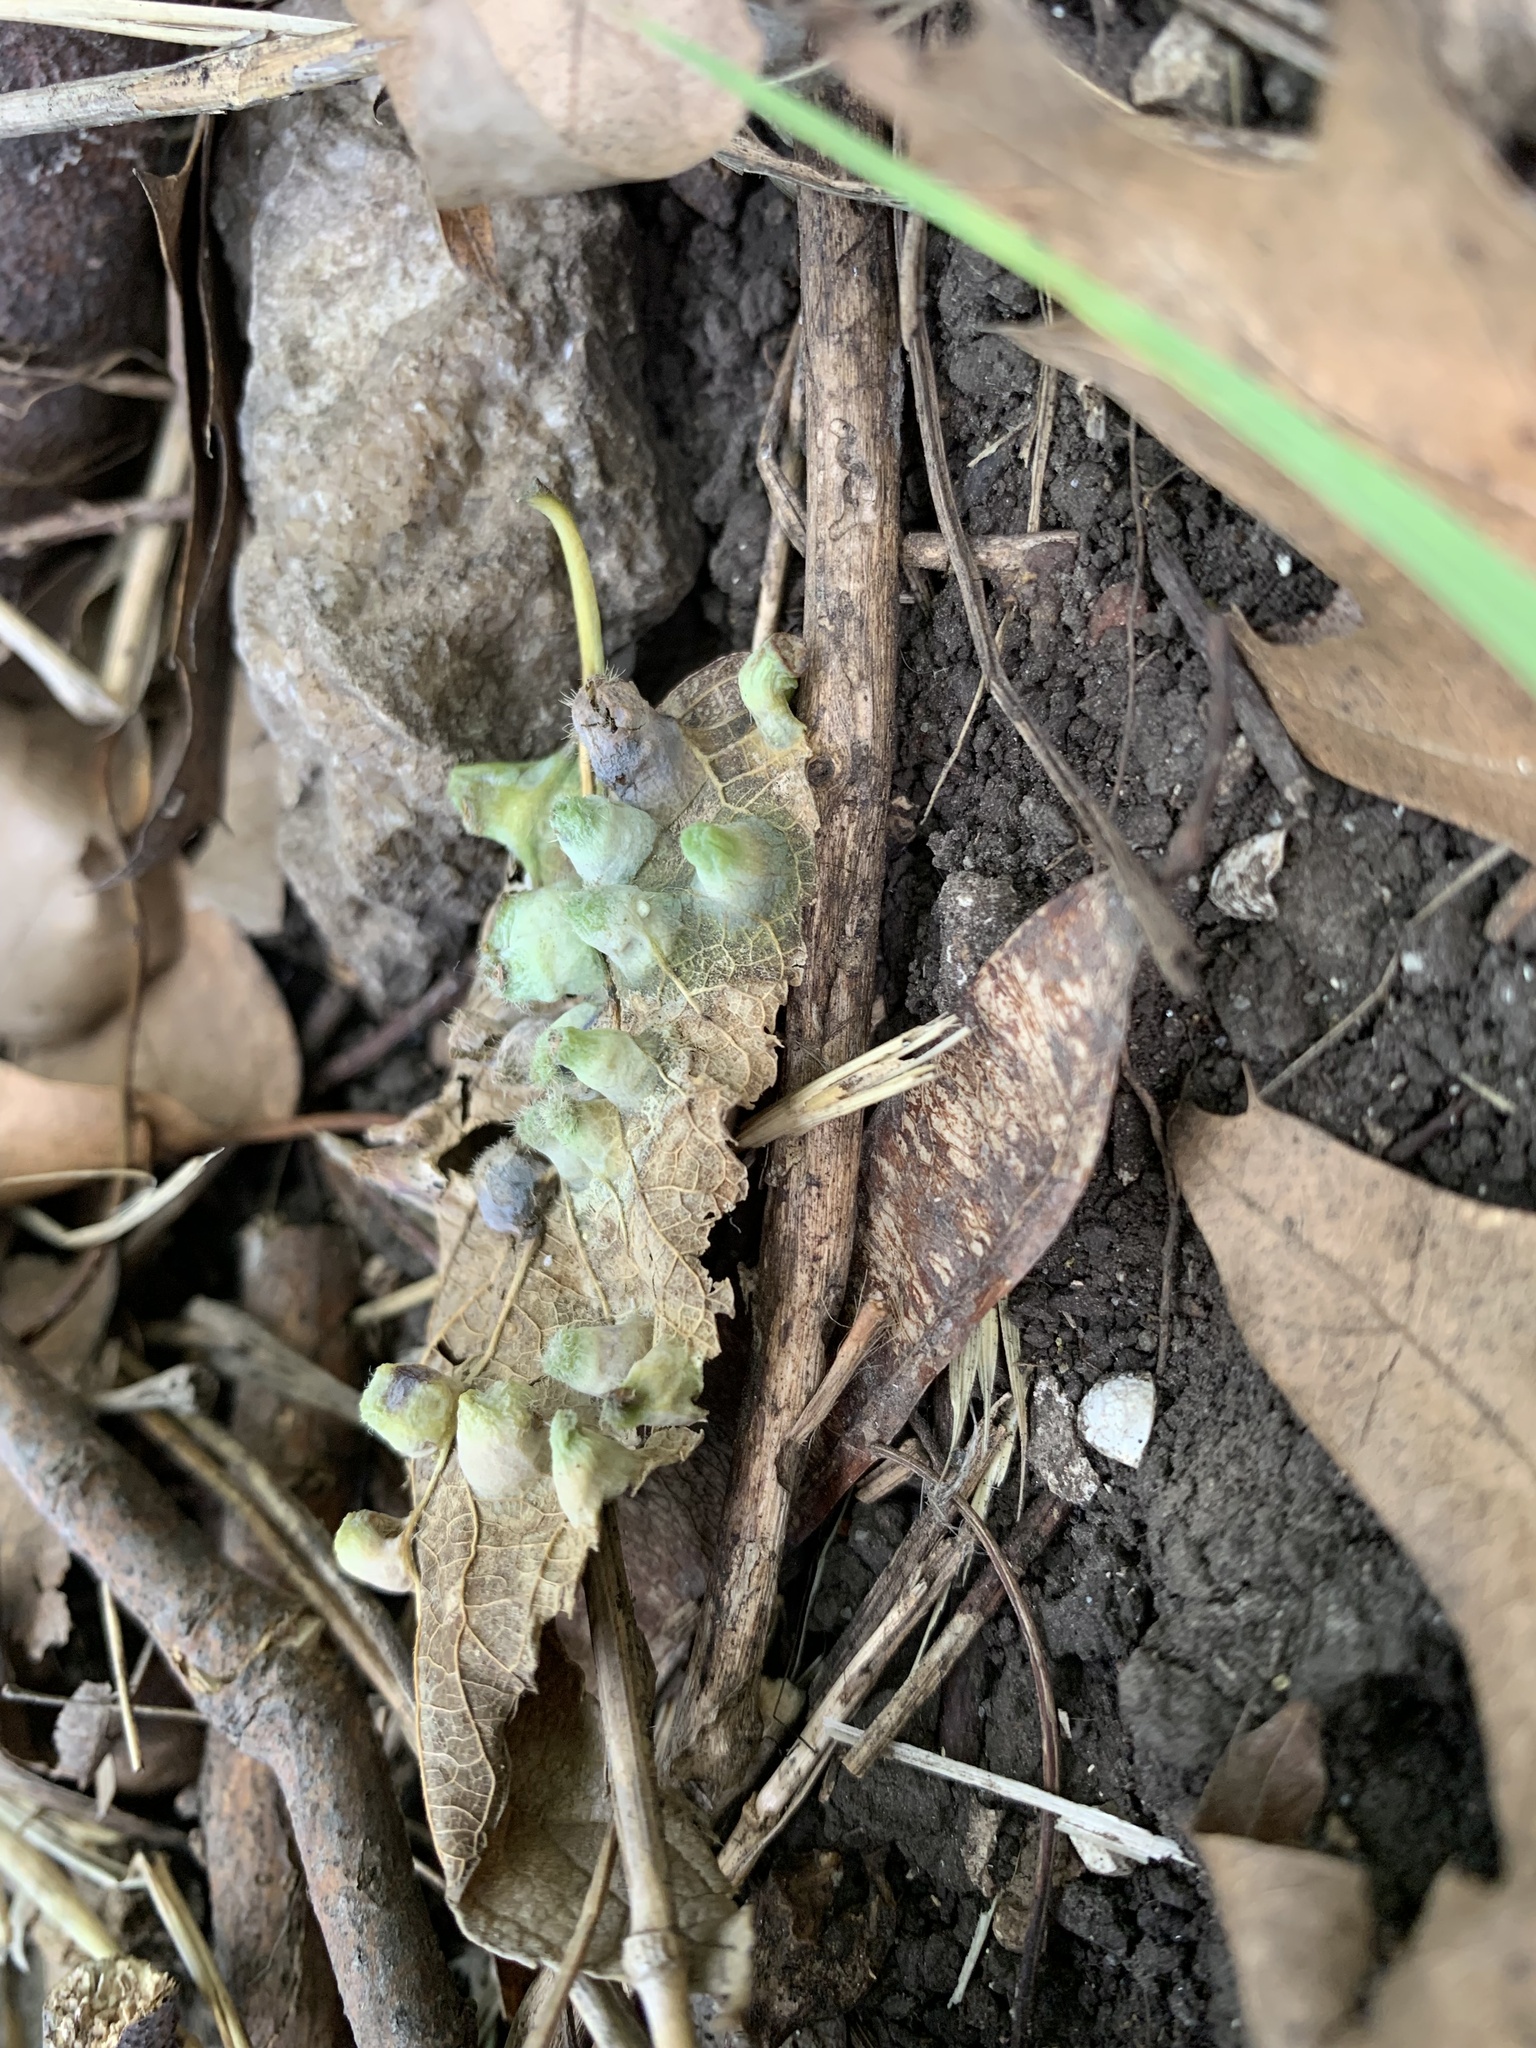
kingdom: Animalia
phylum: Arthropoda
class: Insecta
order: Hemiptera
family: Aphalaridae
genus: Pachypsylla
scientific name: Pachypsylla celtidismamma
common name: Hackberry nipplegall psyllid
